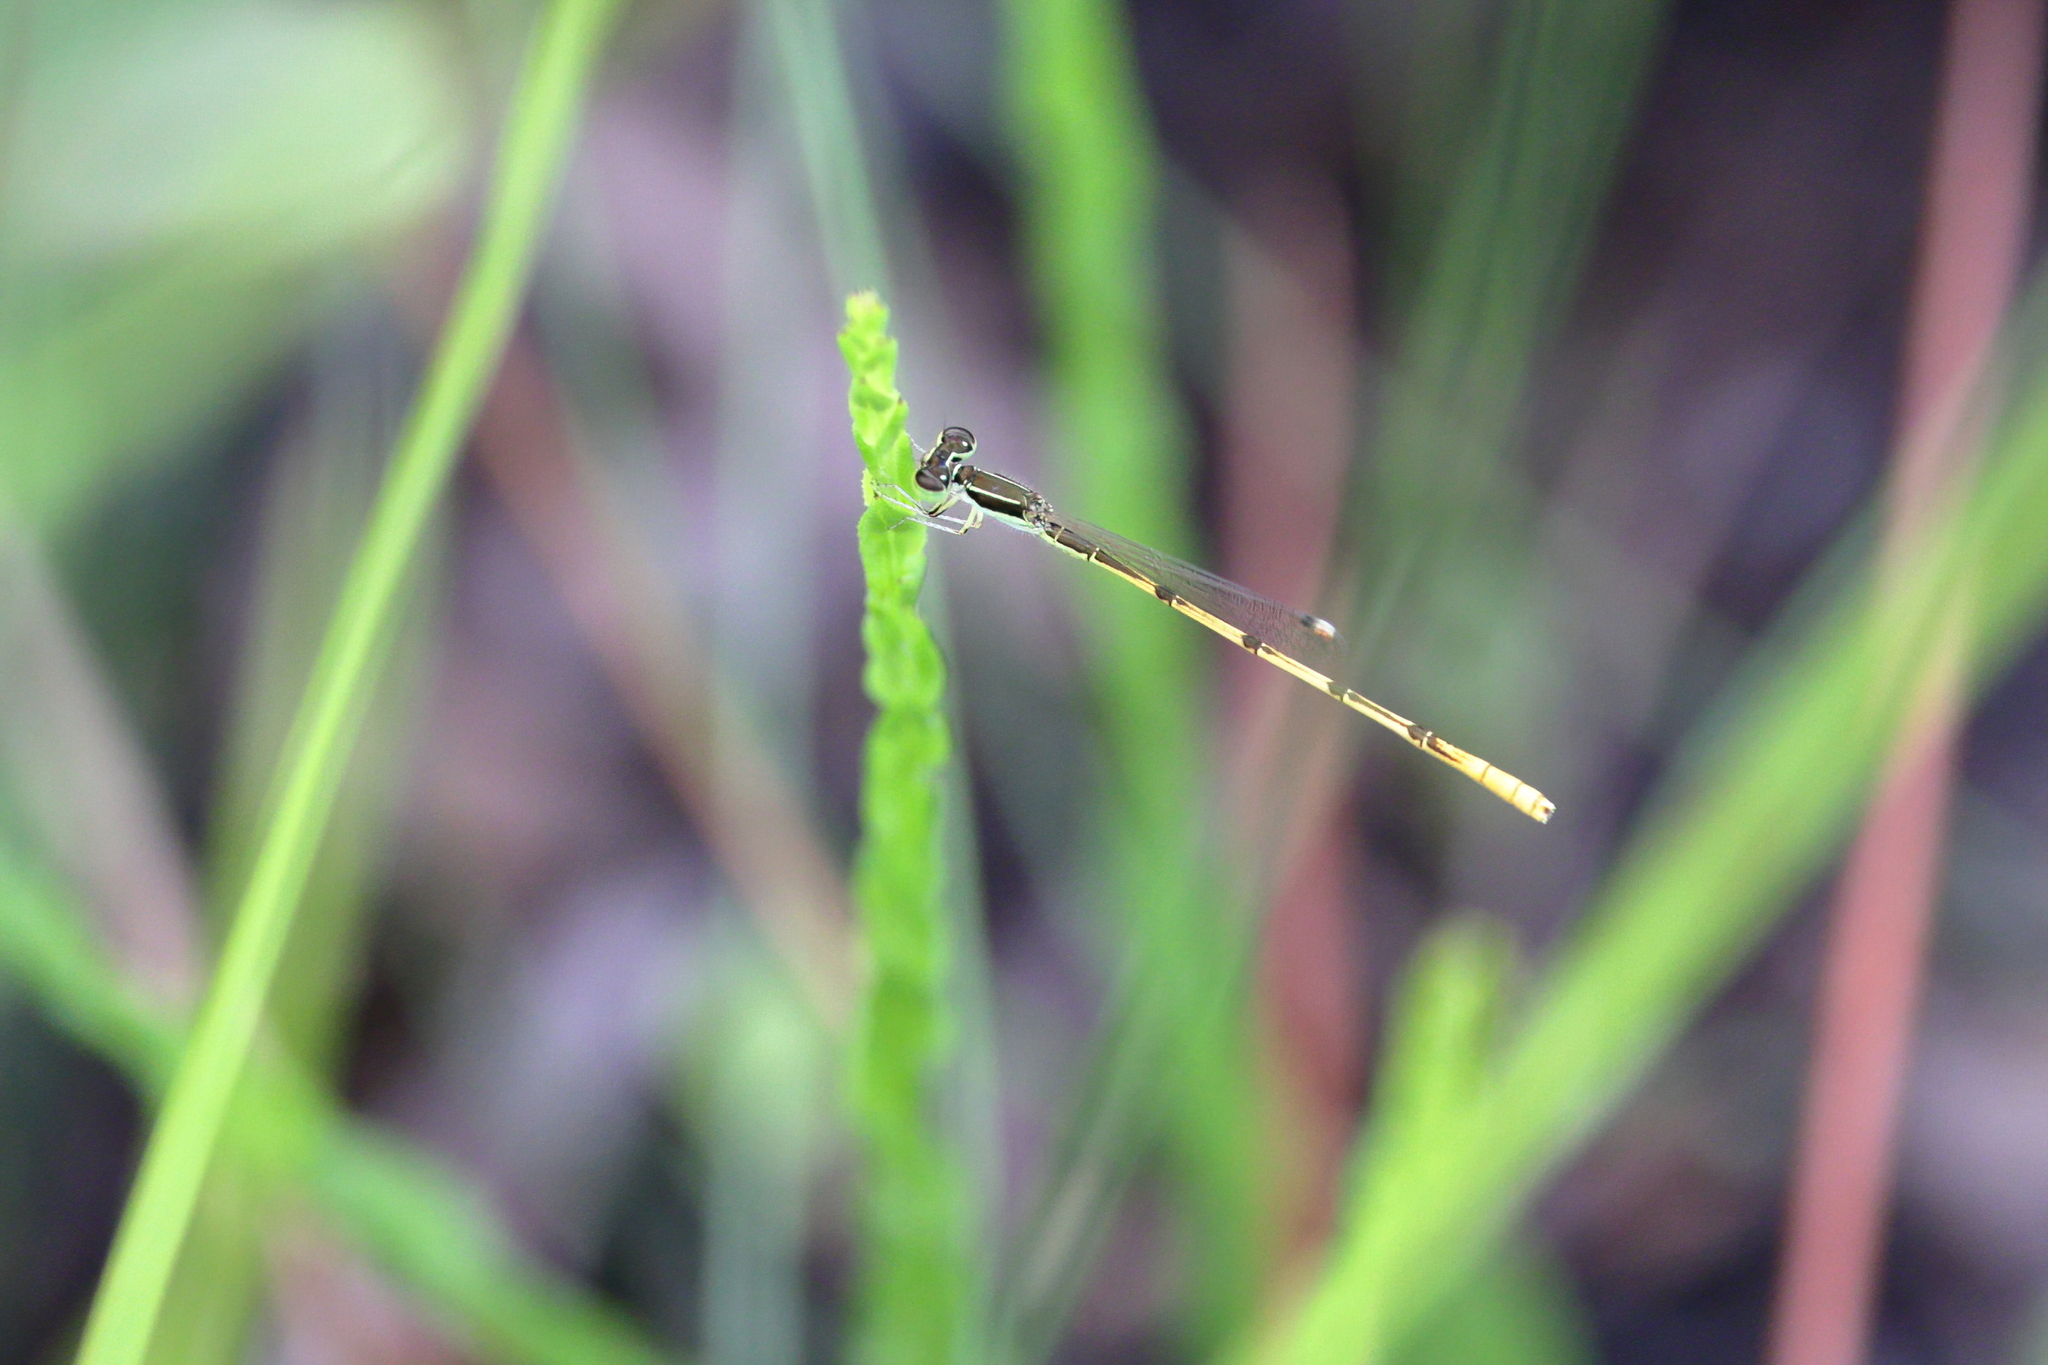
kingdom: Animalia
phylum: Arthropoda
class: Insecta
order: Odonata
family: Coenagrionidae
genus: Ischnura
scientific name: Ischnura hastata
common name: Citrine forktail
